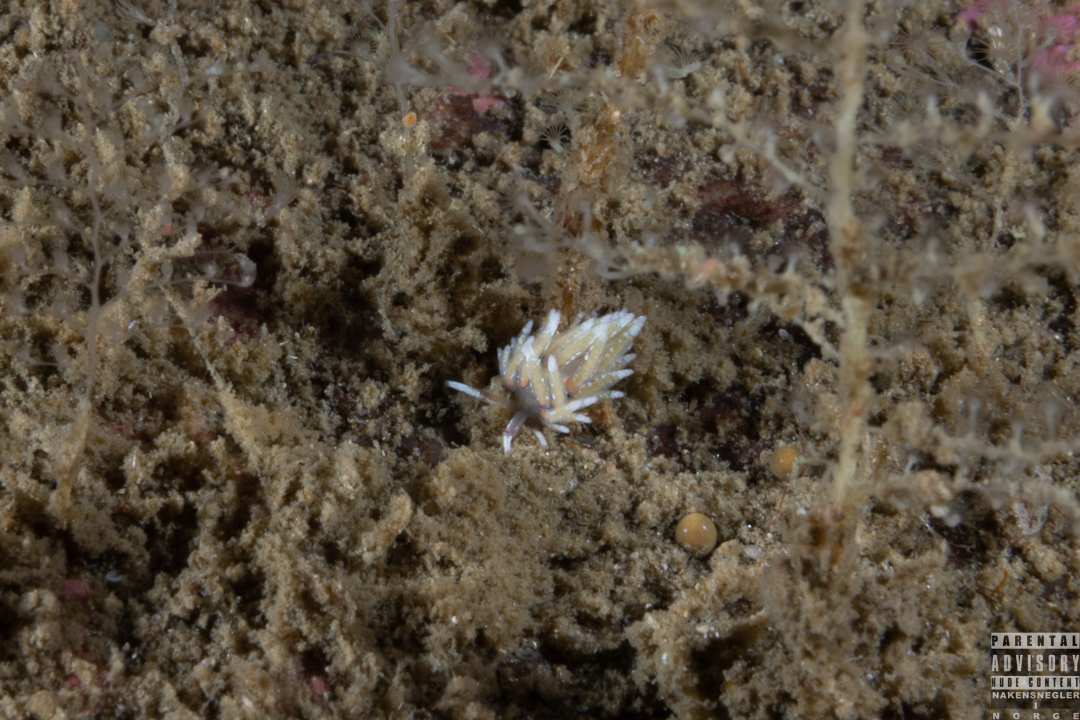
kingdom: Animalia
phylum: Mollusca
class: Gastropoda
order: Nudibranchia
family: Trinchesiidae
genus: Rubramoena
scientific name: Rubramoena rubescens
